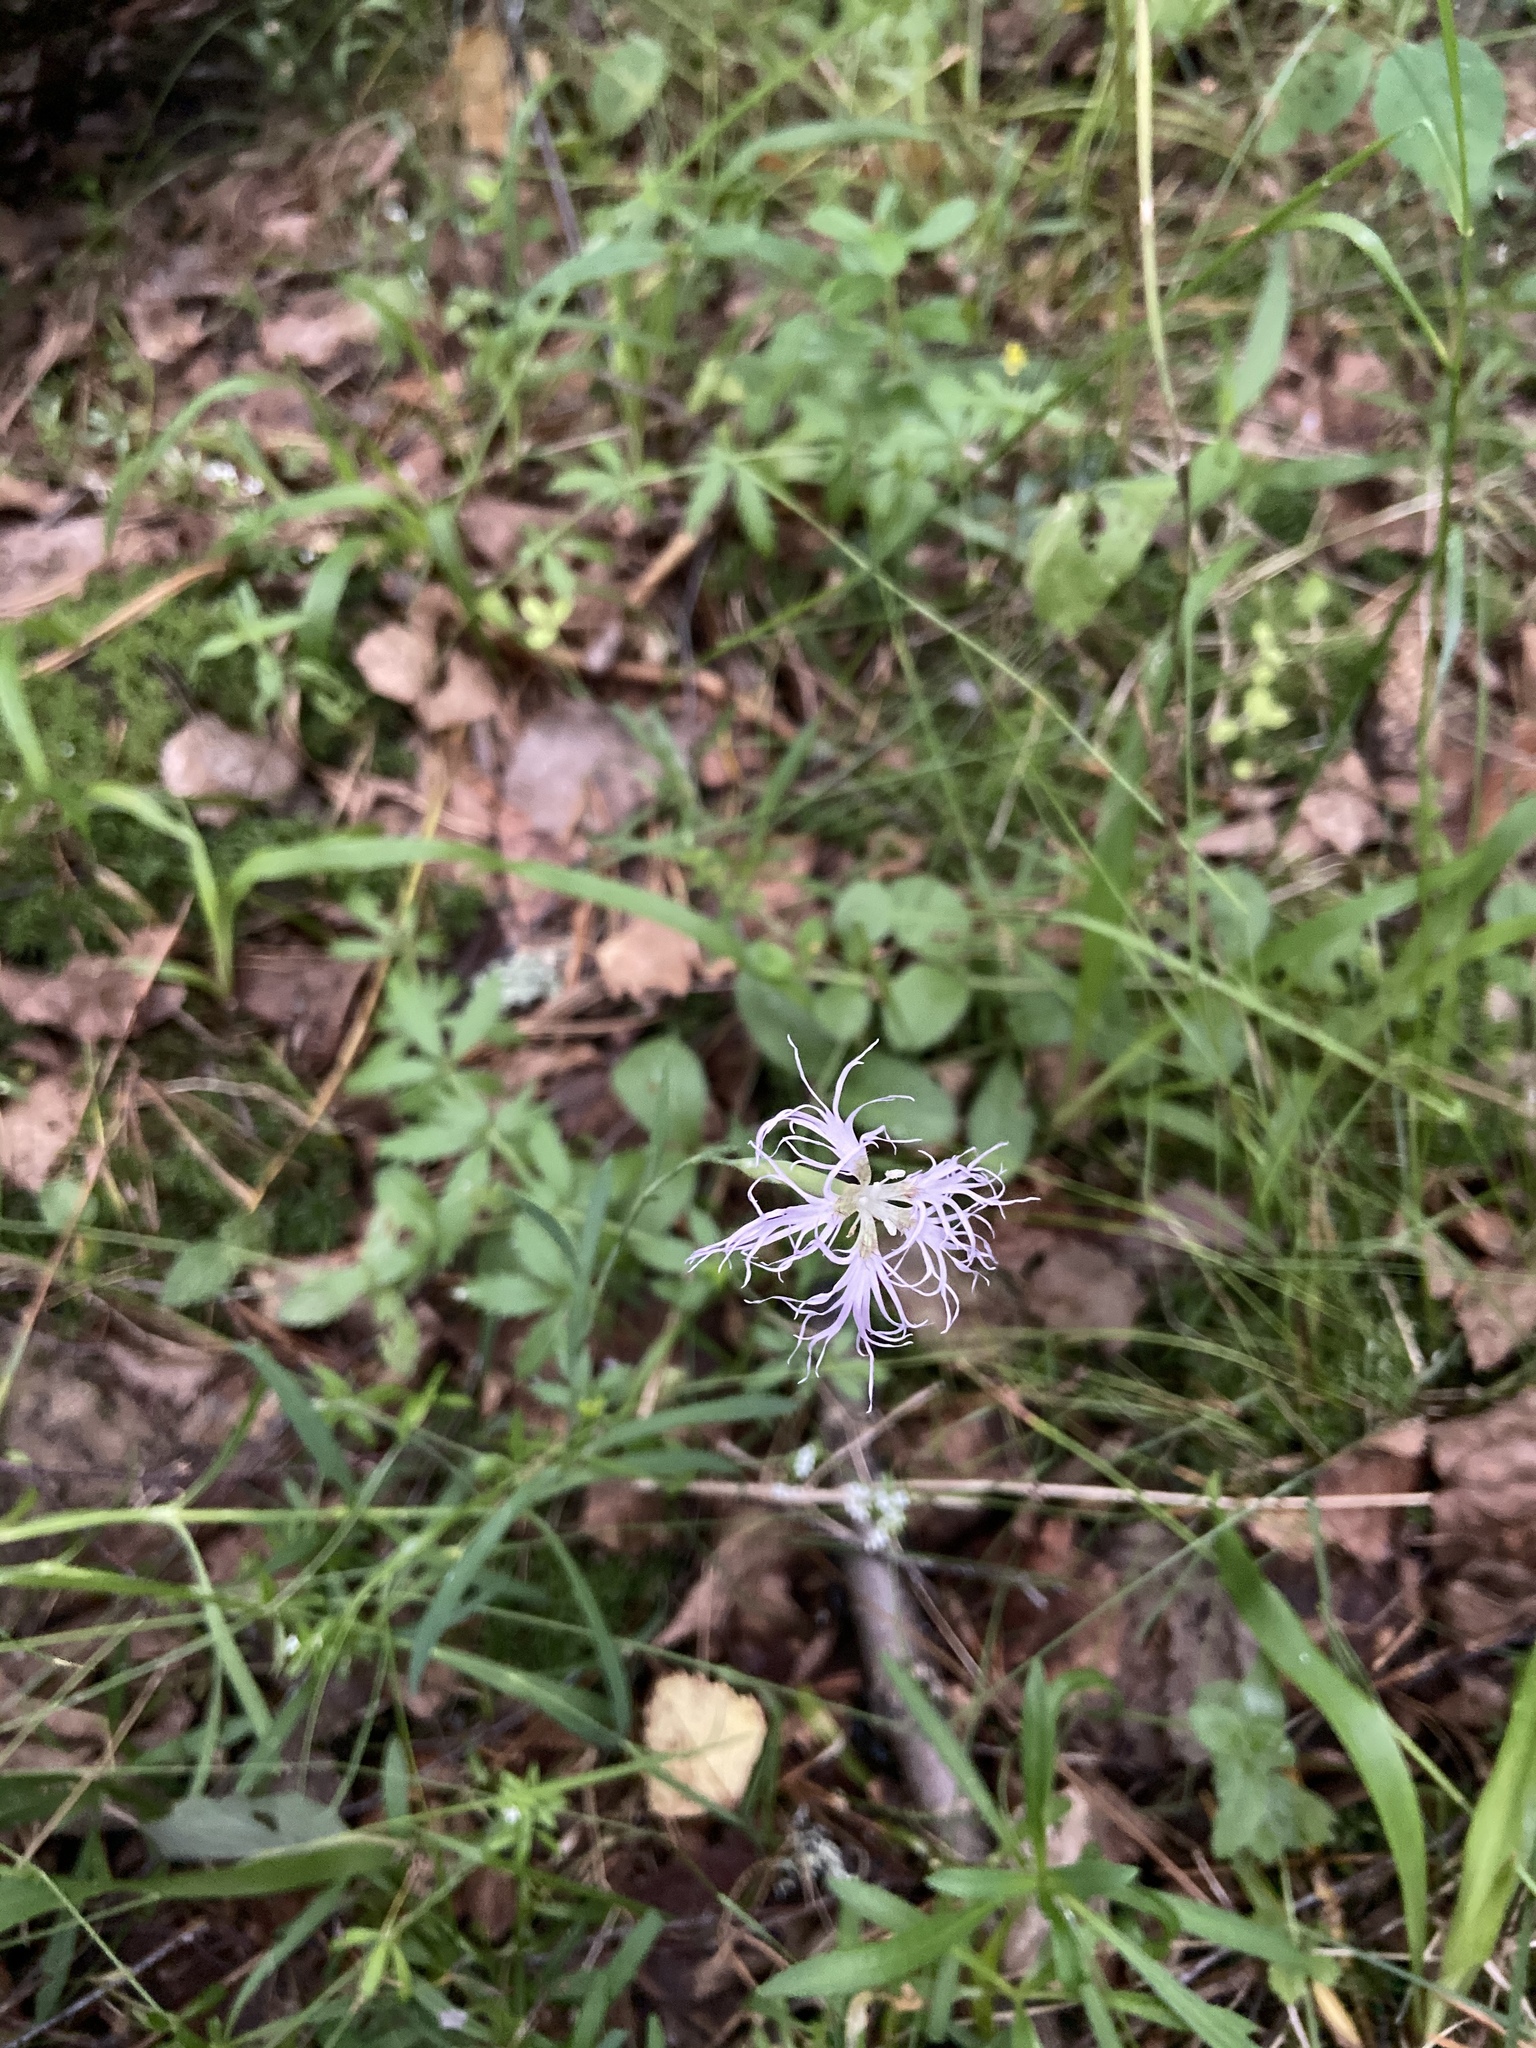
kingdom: Plantae
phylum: Tracheophyta
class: Magnoliopsida
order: Caryophyllales
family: Caryophyllaceae
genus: Dianthus
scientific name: Dianthus superbus
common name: Fringed pink
